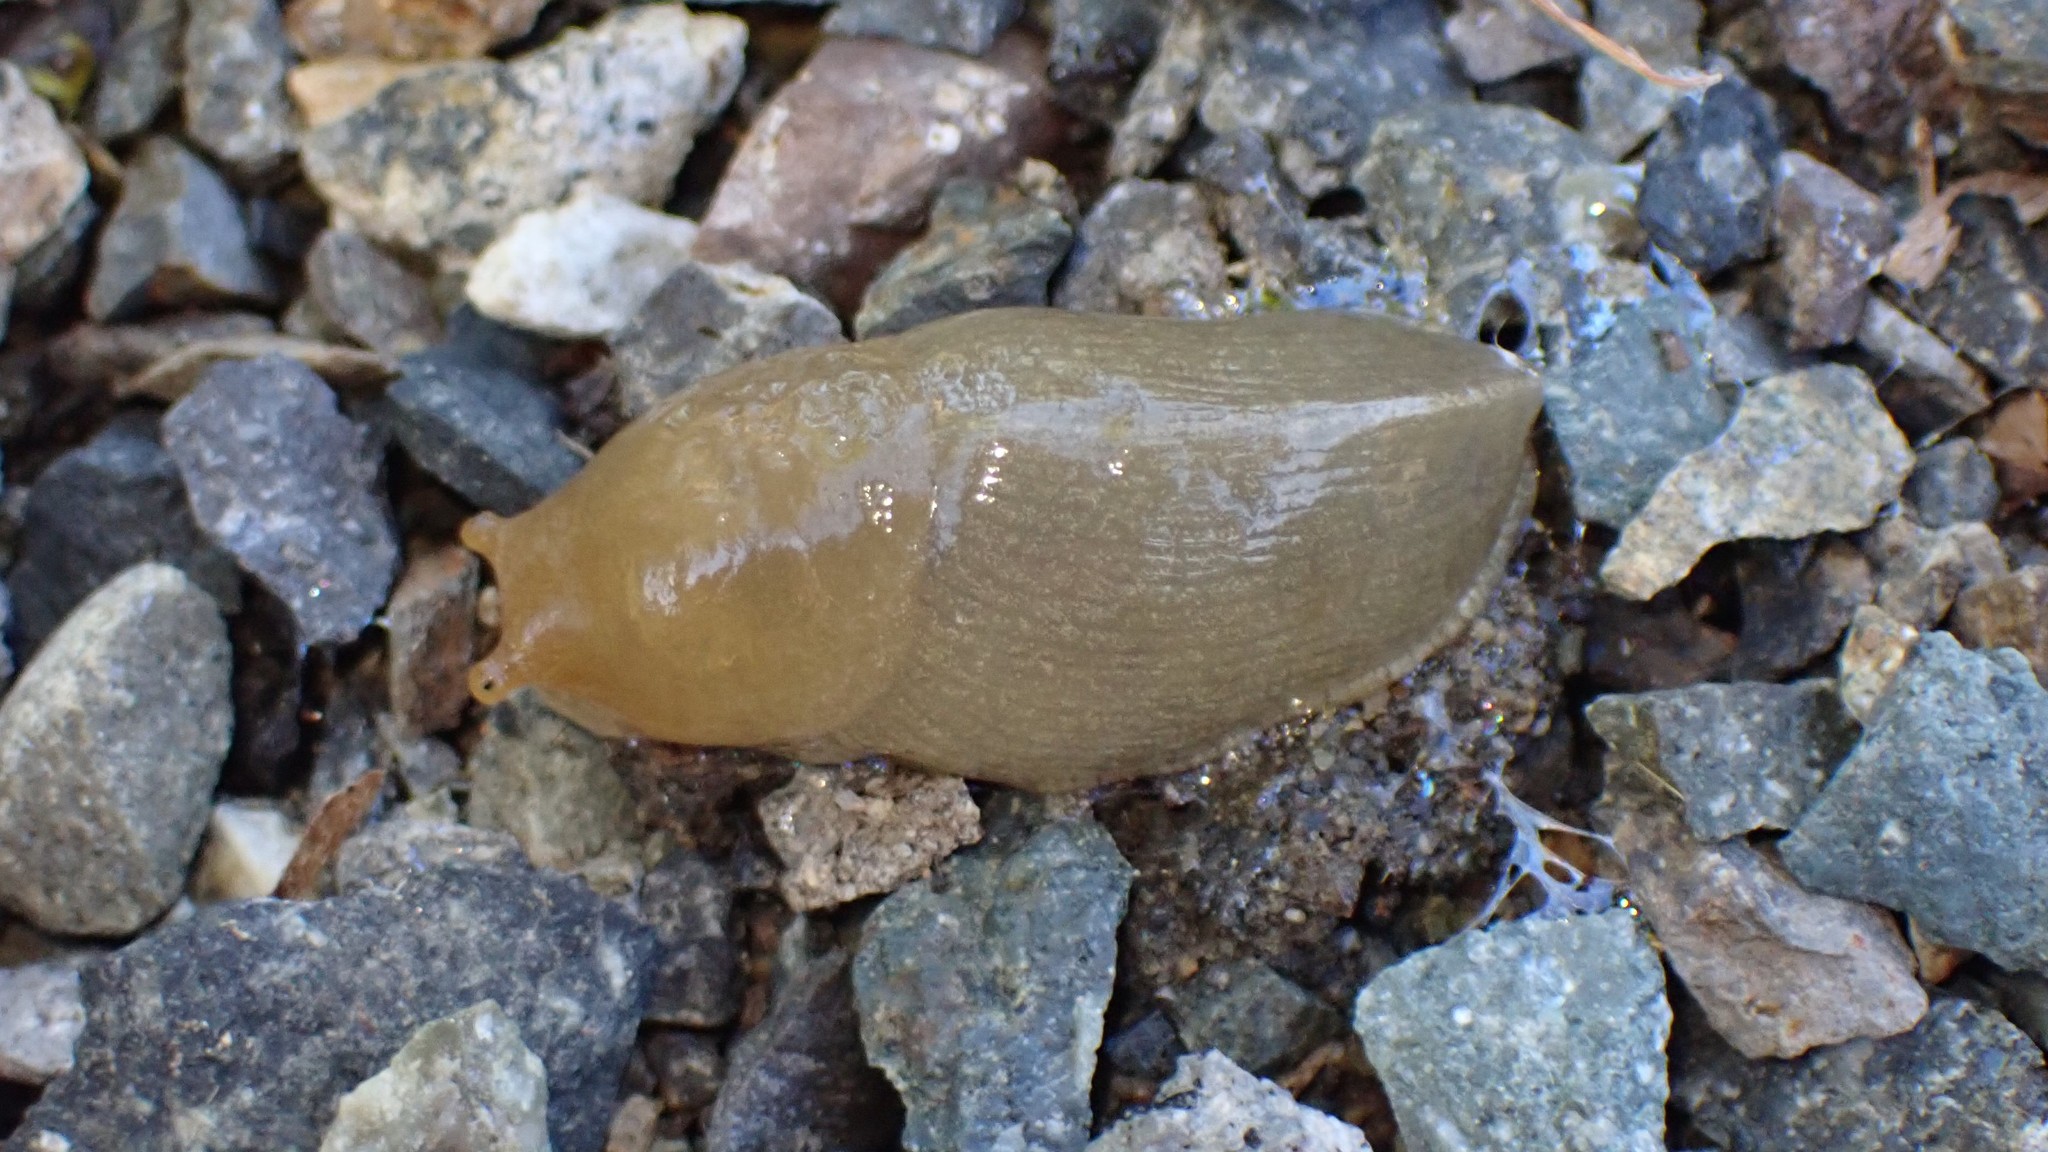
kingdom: Animalia
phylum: Mollusca
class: Gastropoda
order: Stylommatophora
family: Ariolimacidae
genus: Ariolimax
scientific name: Ariolimax columbianus
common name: Pacific banana slug
